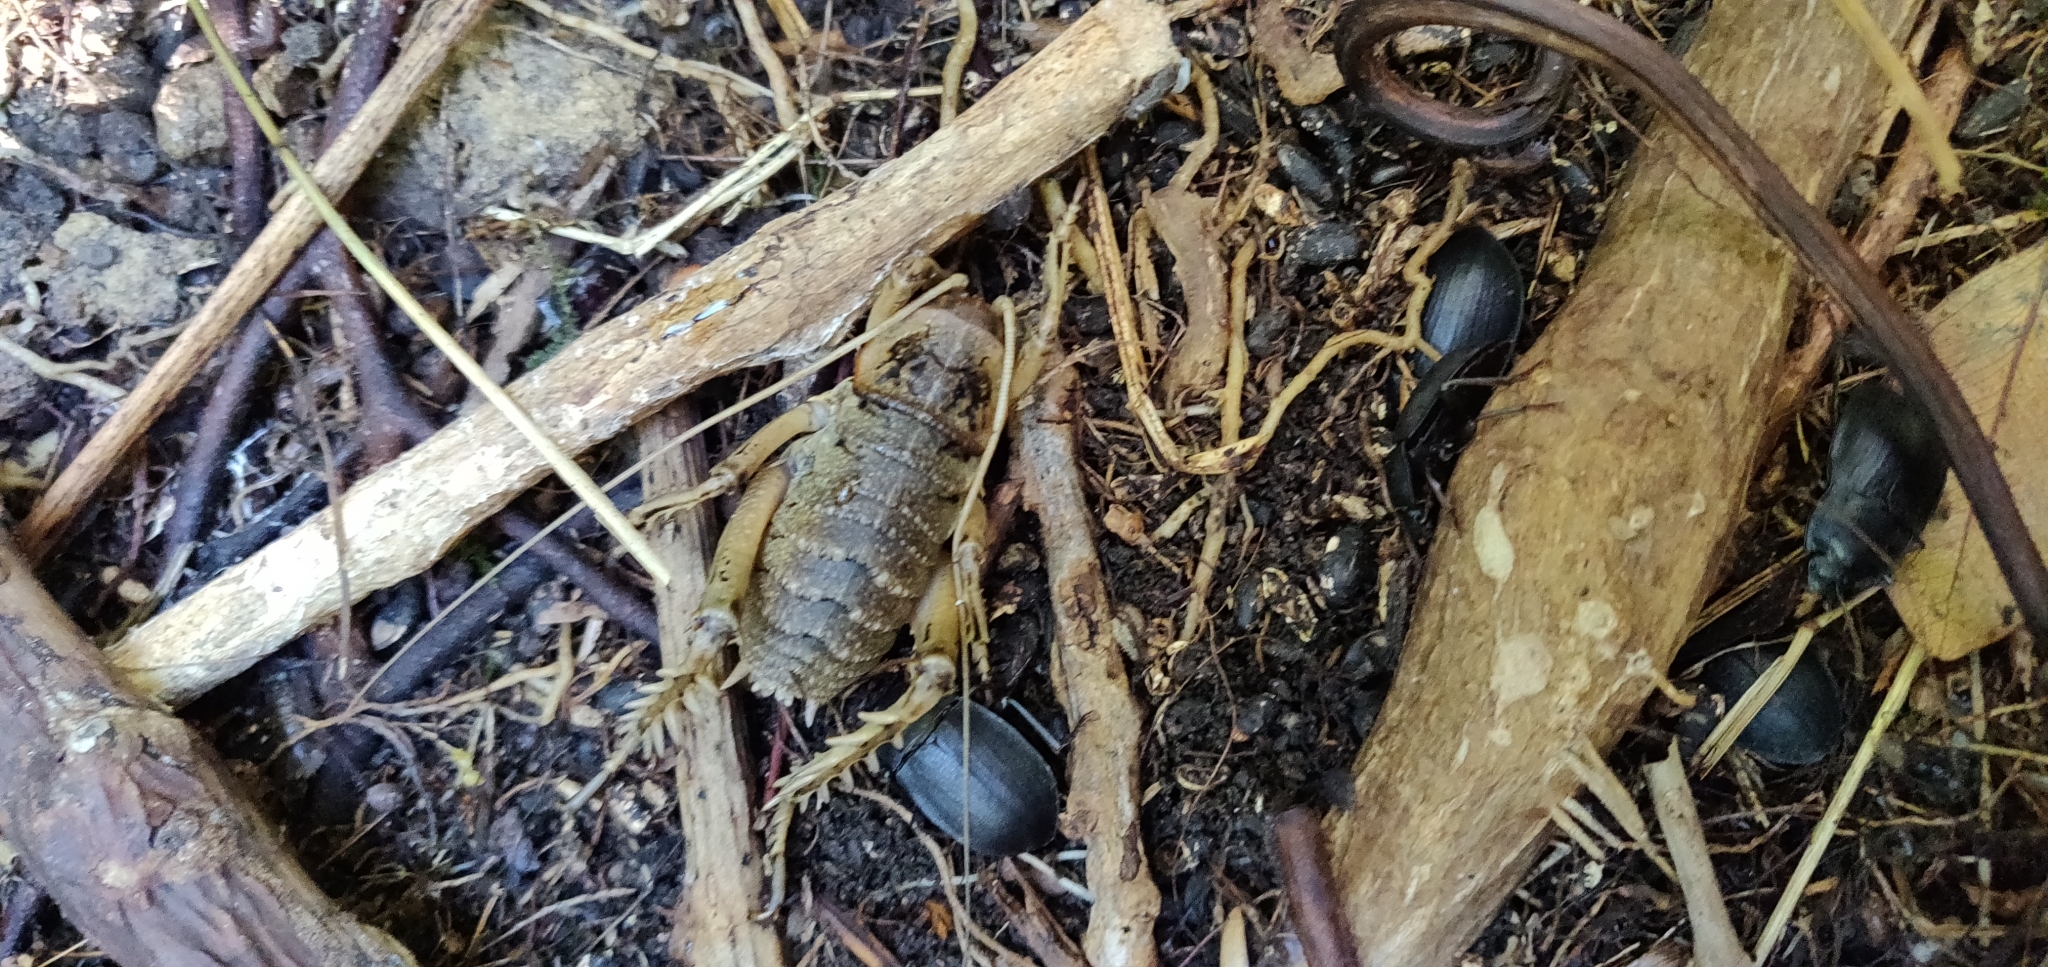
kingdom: Animalia
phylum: Arthropoda
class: Insecta
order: Orthoptera
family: Anostostomatidae
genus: Deinacrida
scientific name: Deinacrida rugosa
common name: Stephens island weta
